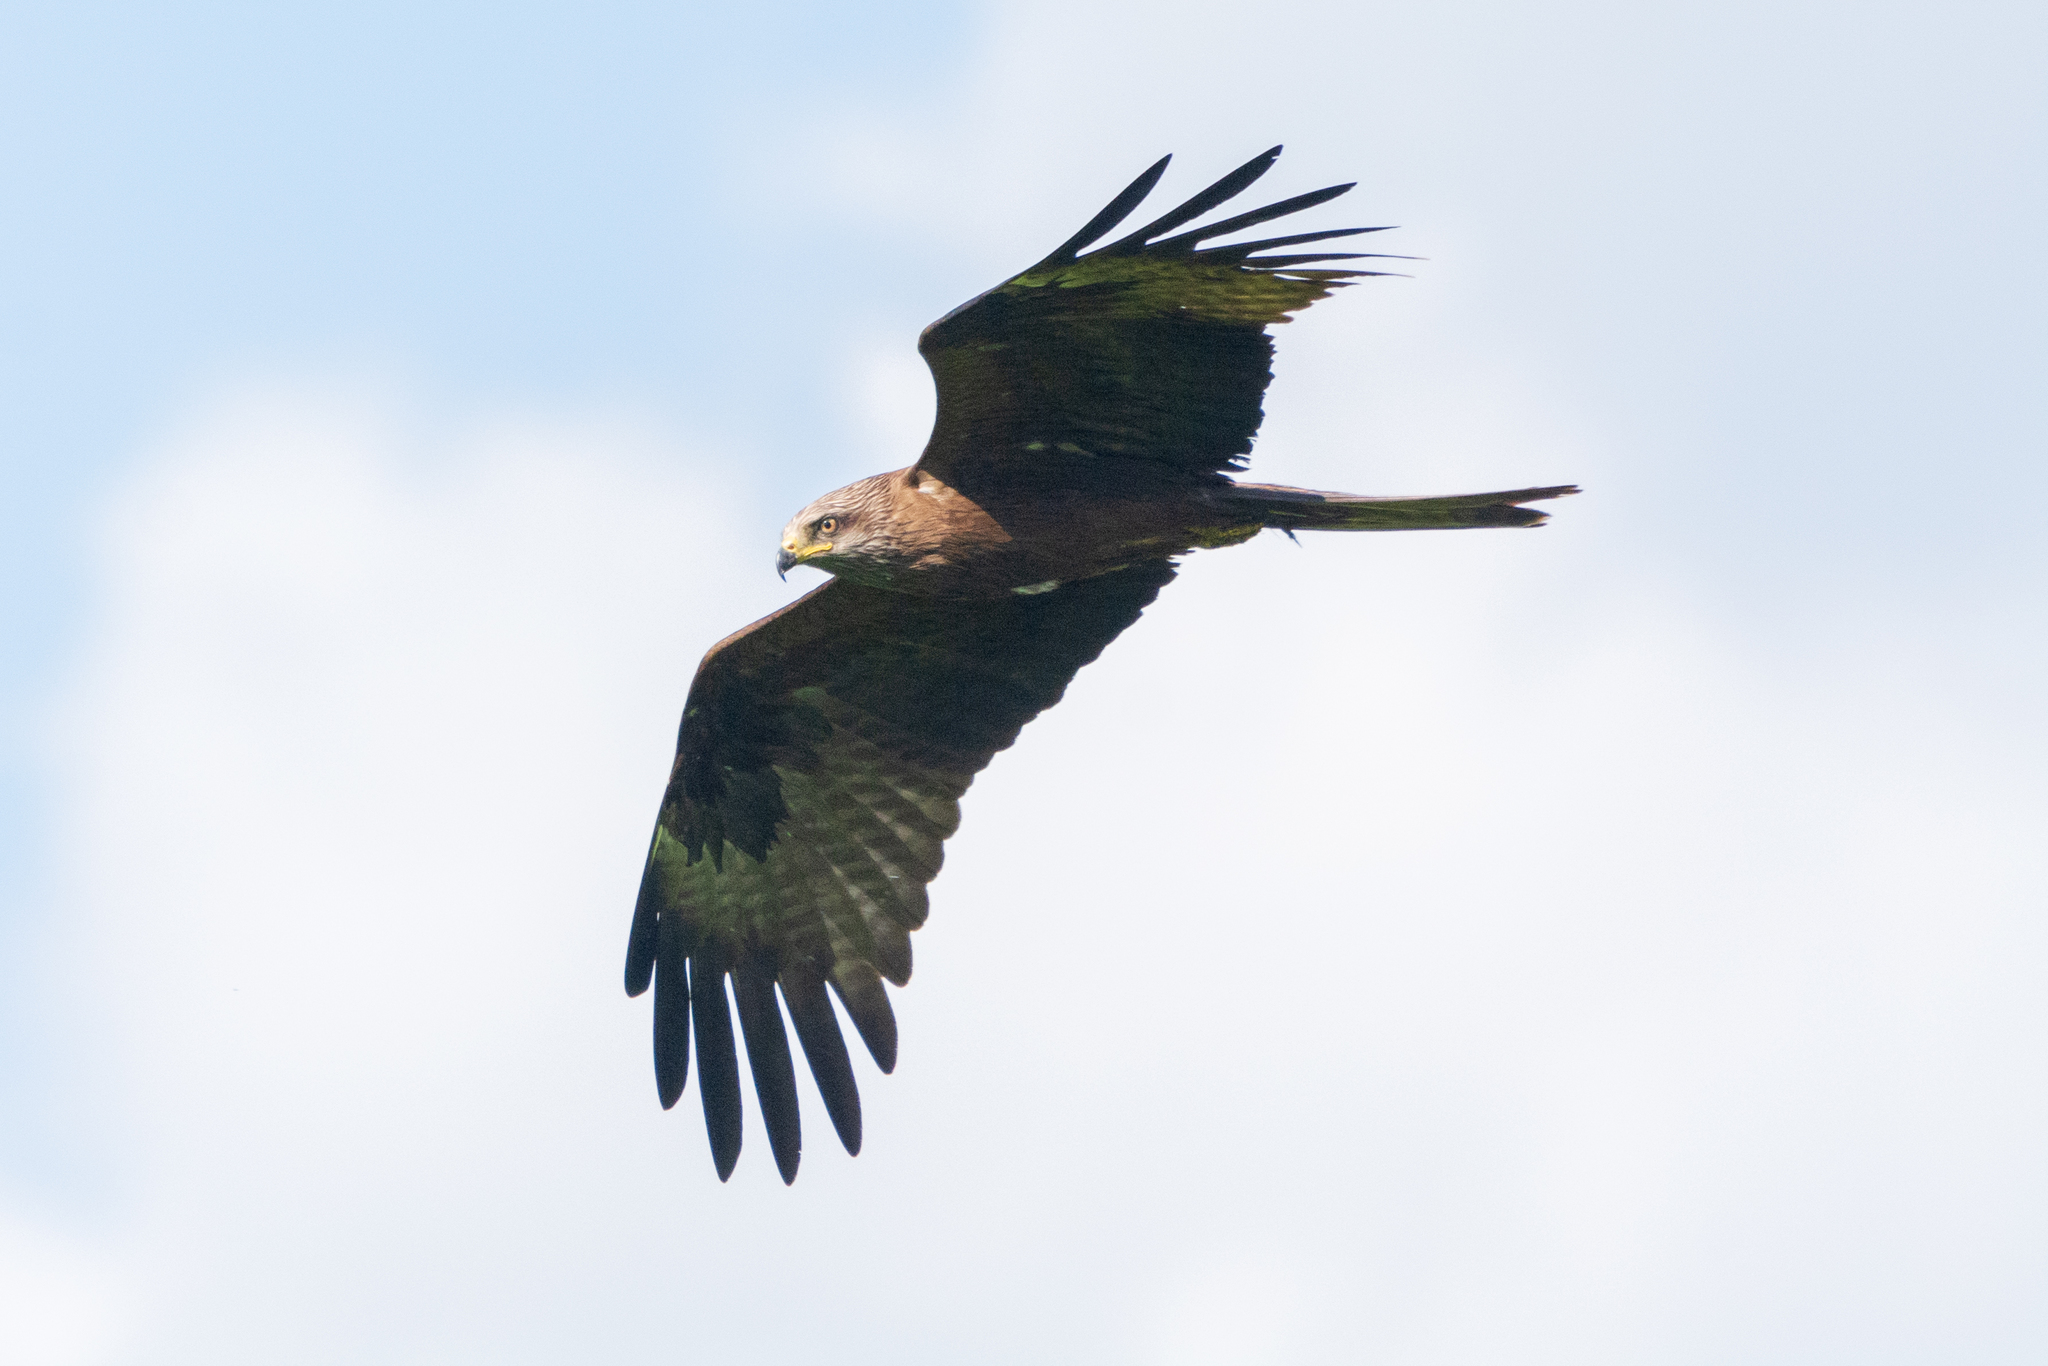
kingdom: Animalia
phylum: Chordata
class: Aves
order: Accipitriformes
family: Accipitridae
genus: Milvus
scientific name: Milvus migrans
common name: Black kite
